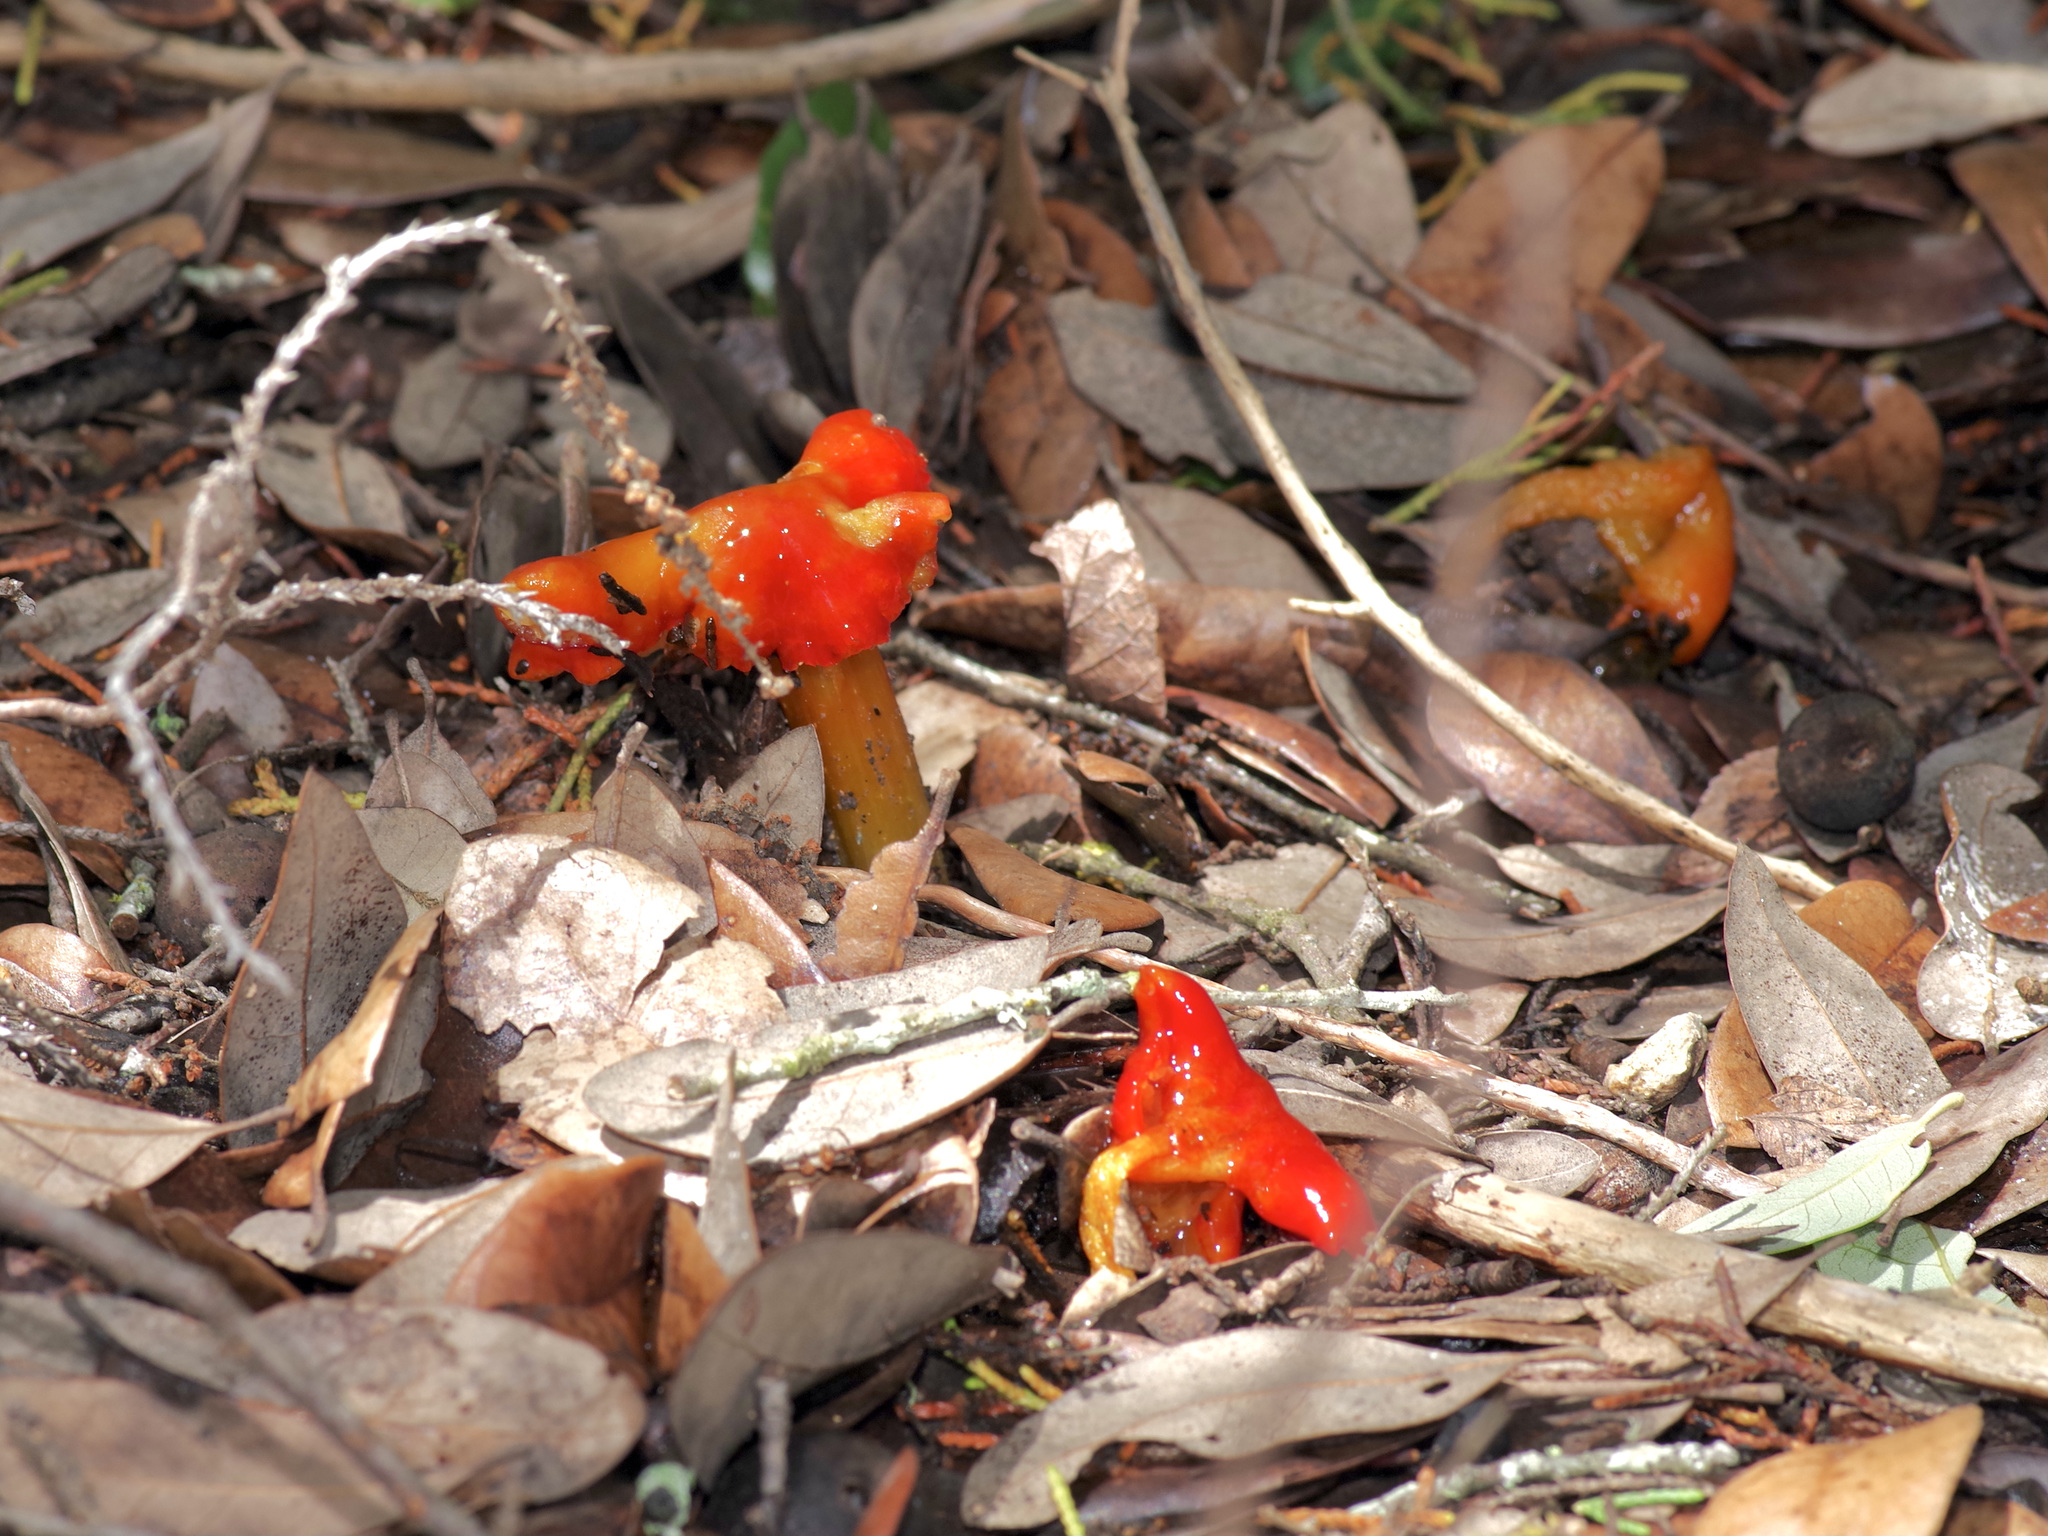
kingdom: Fungi
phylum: Basidiomycota
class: Agaricomycetes
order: Agaricales
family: Hygrophoraceae
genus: Hygrocybe
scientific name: Hygrocybe conica
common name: Blackening wax-cap
